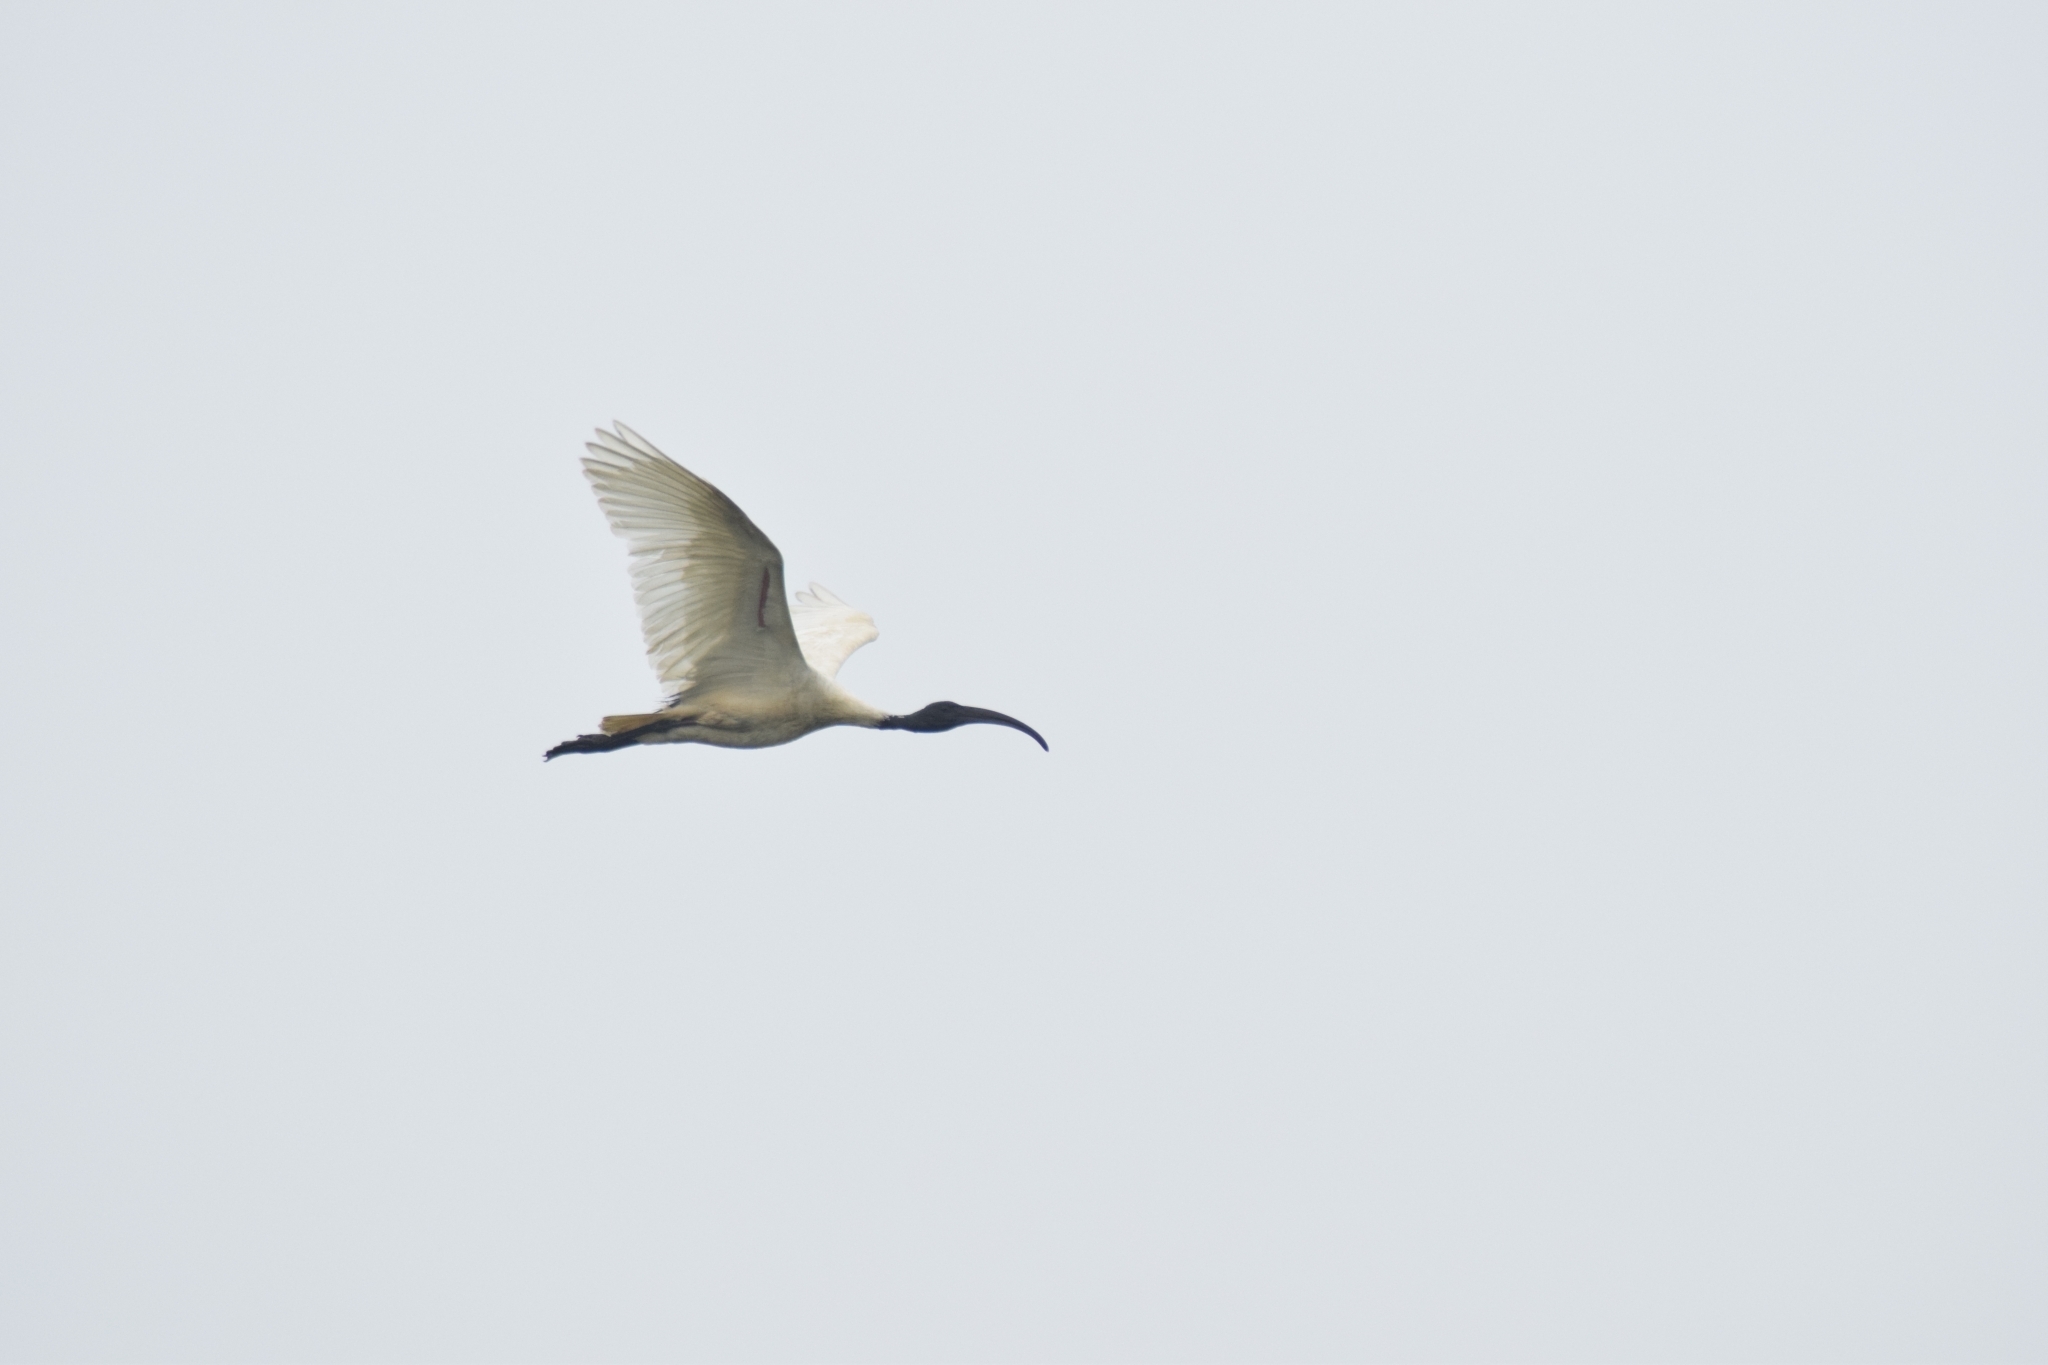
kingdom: Animalia
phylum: Chordata
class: Aves
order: Pelecaniformes
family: Threskiornithidae
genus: Threskiornis
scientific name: Threskiornis melanocephalus
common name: Black-headed ibis
